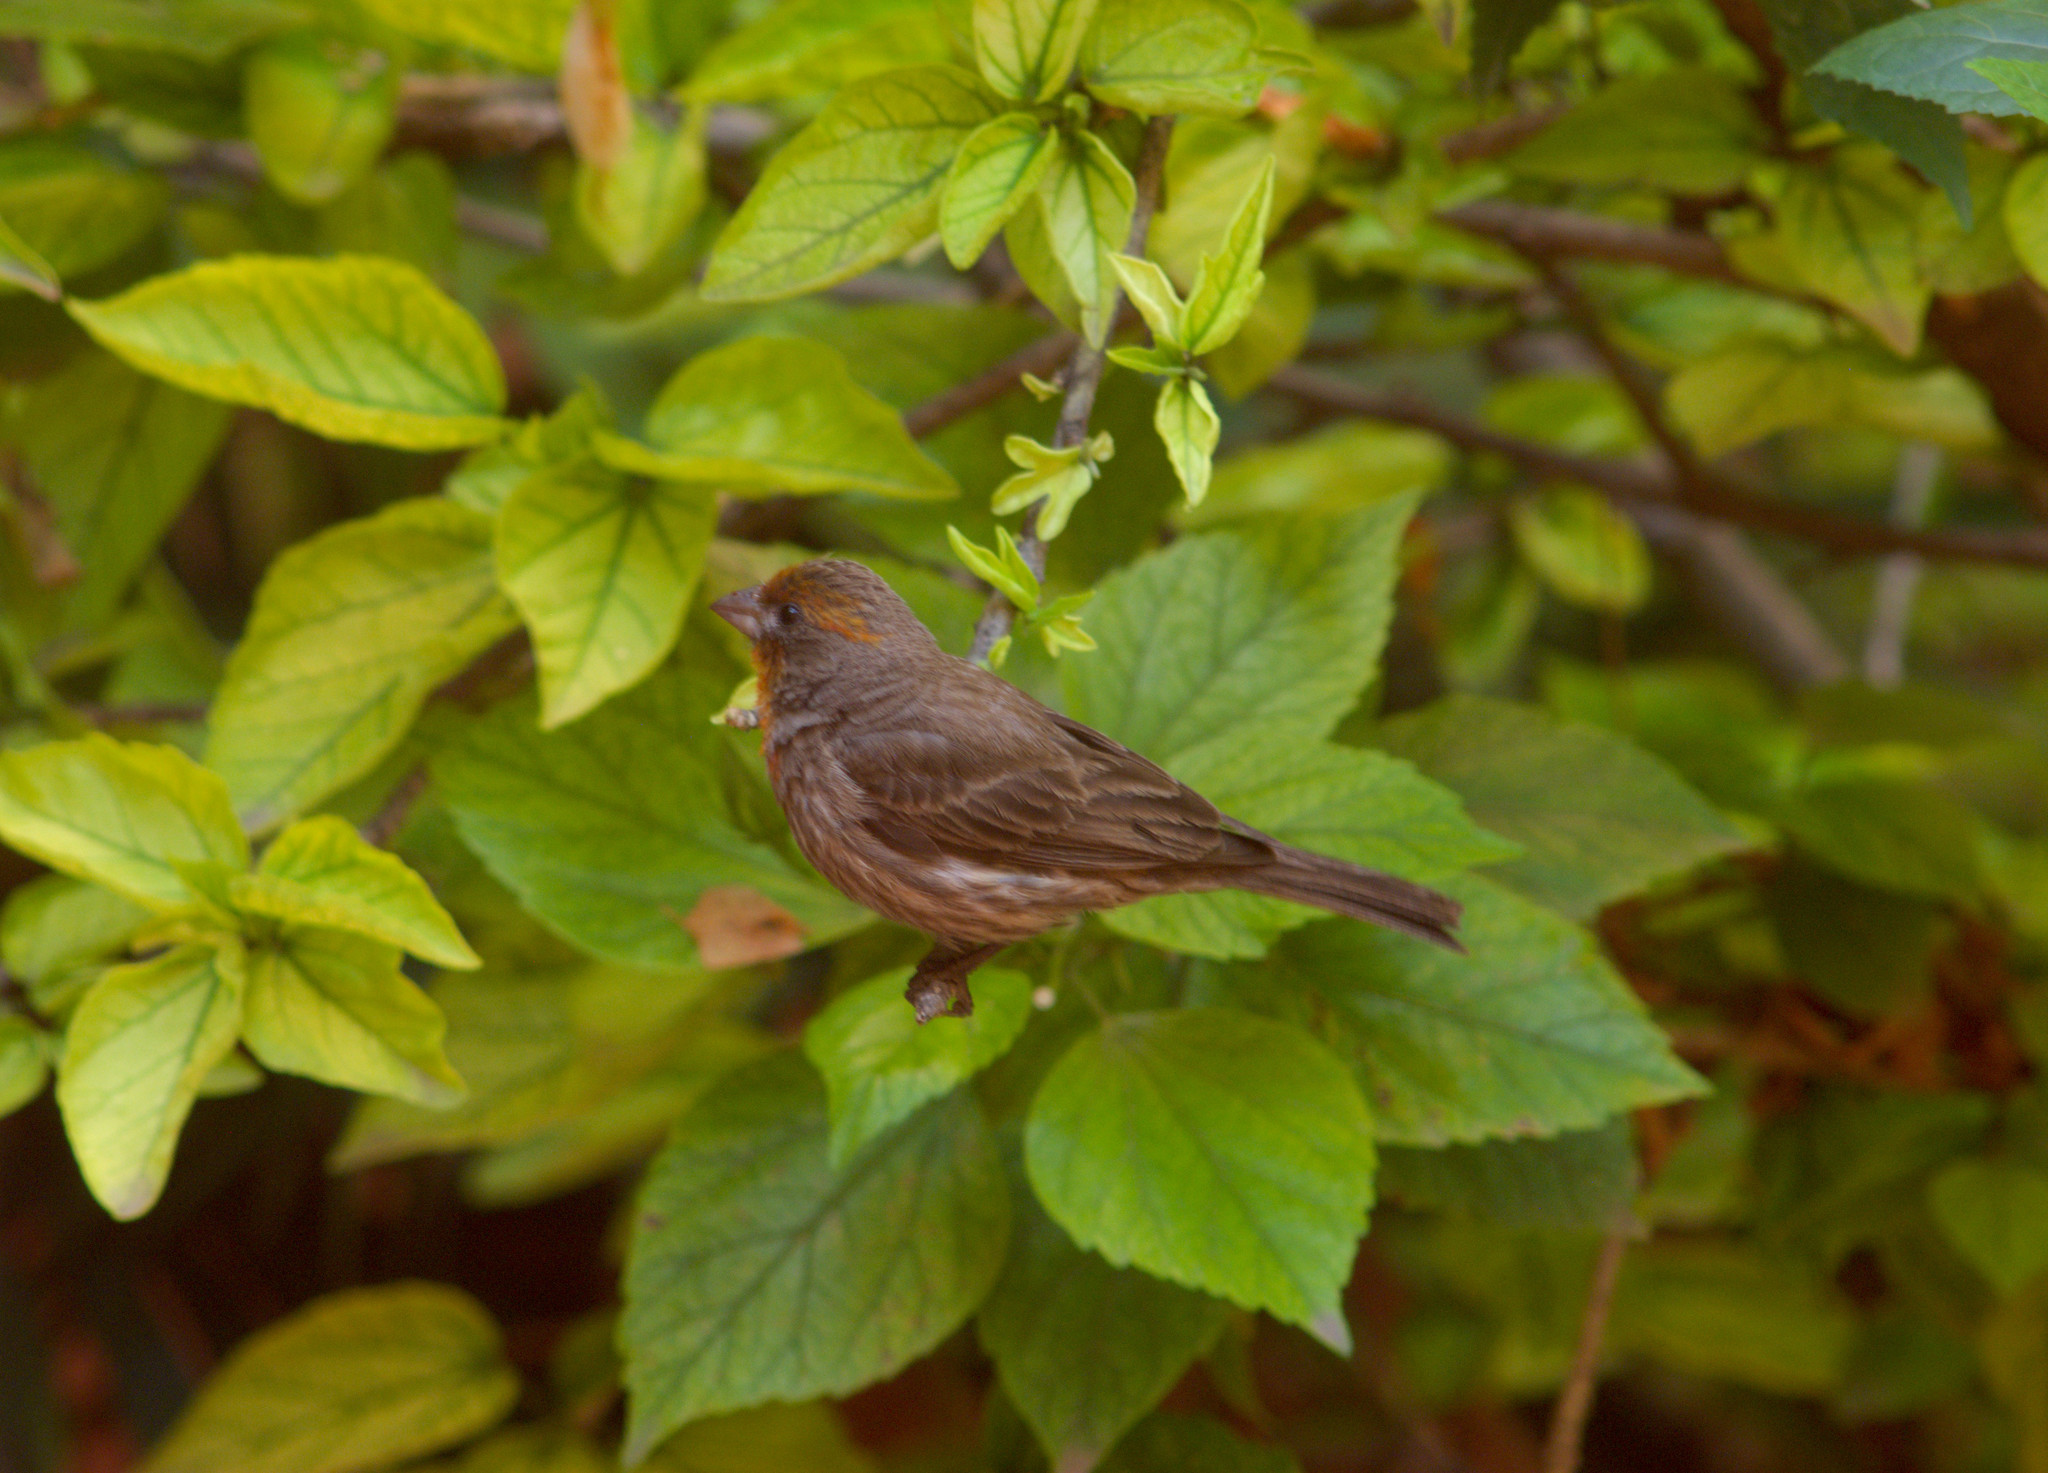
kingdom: Animalia
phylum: Chordata
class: Aves
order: Passeriformes
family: Fringillidae
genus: Haemorhous
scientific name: Haemorhous mexicanus
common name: House finch
